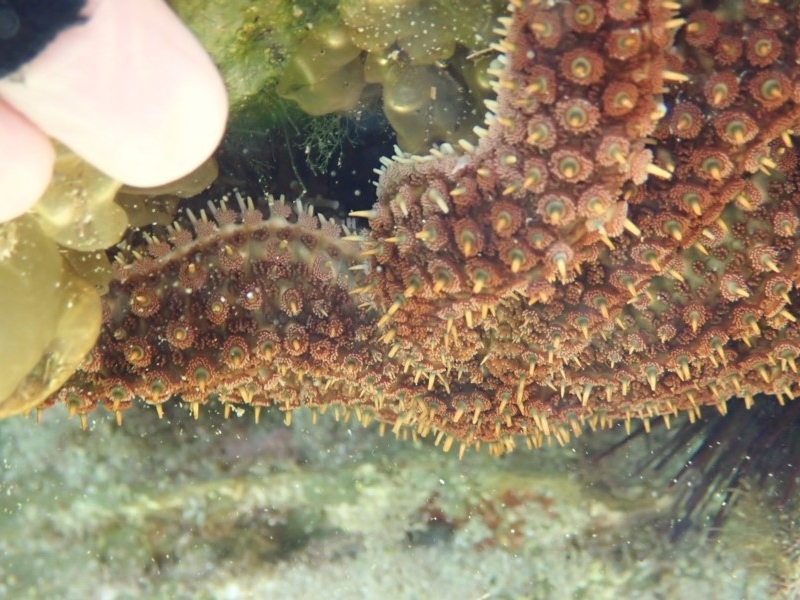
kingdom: Animalia
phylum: Echinodermata
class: Asteroidea
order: Forcipulatida
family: Asteriidae
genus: Coscinasterias
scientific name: Coscinasterias muricata
